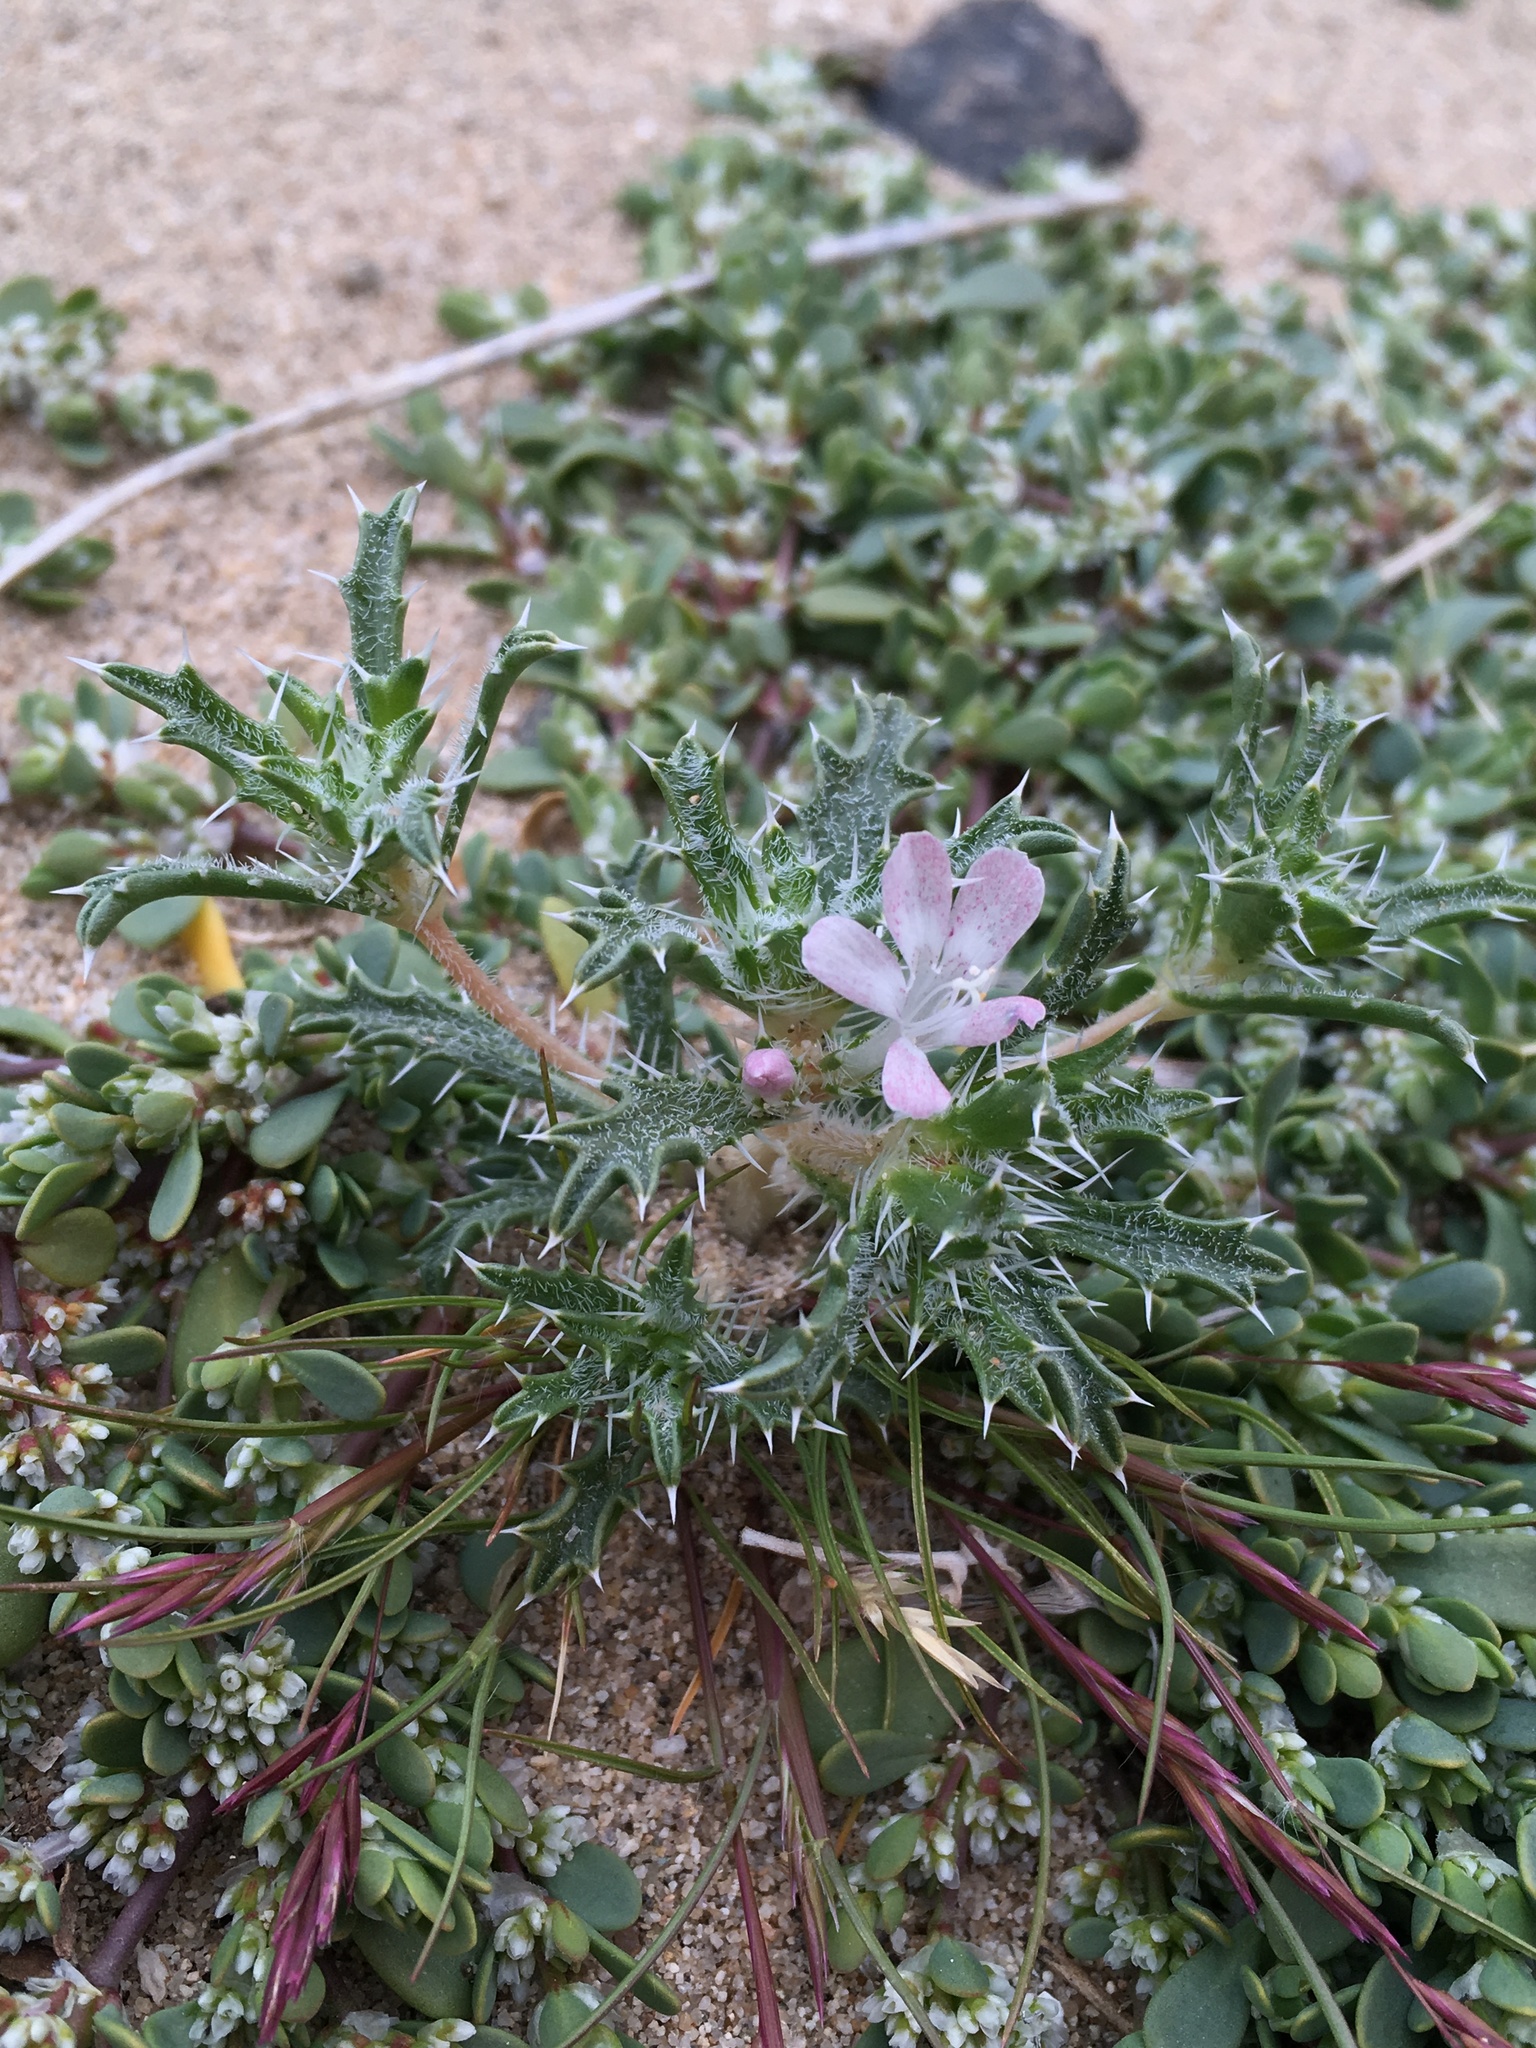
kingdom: Plantae
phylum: Tracheophyta
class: Magnoliopsida
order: Ericales
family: Polemoniaceae
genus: Loeseliastrum
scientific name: Loeseliastrum schottii
